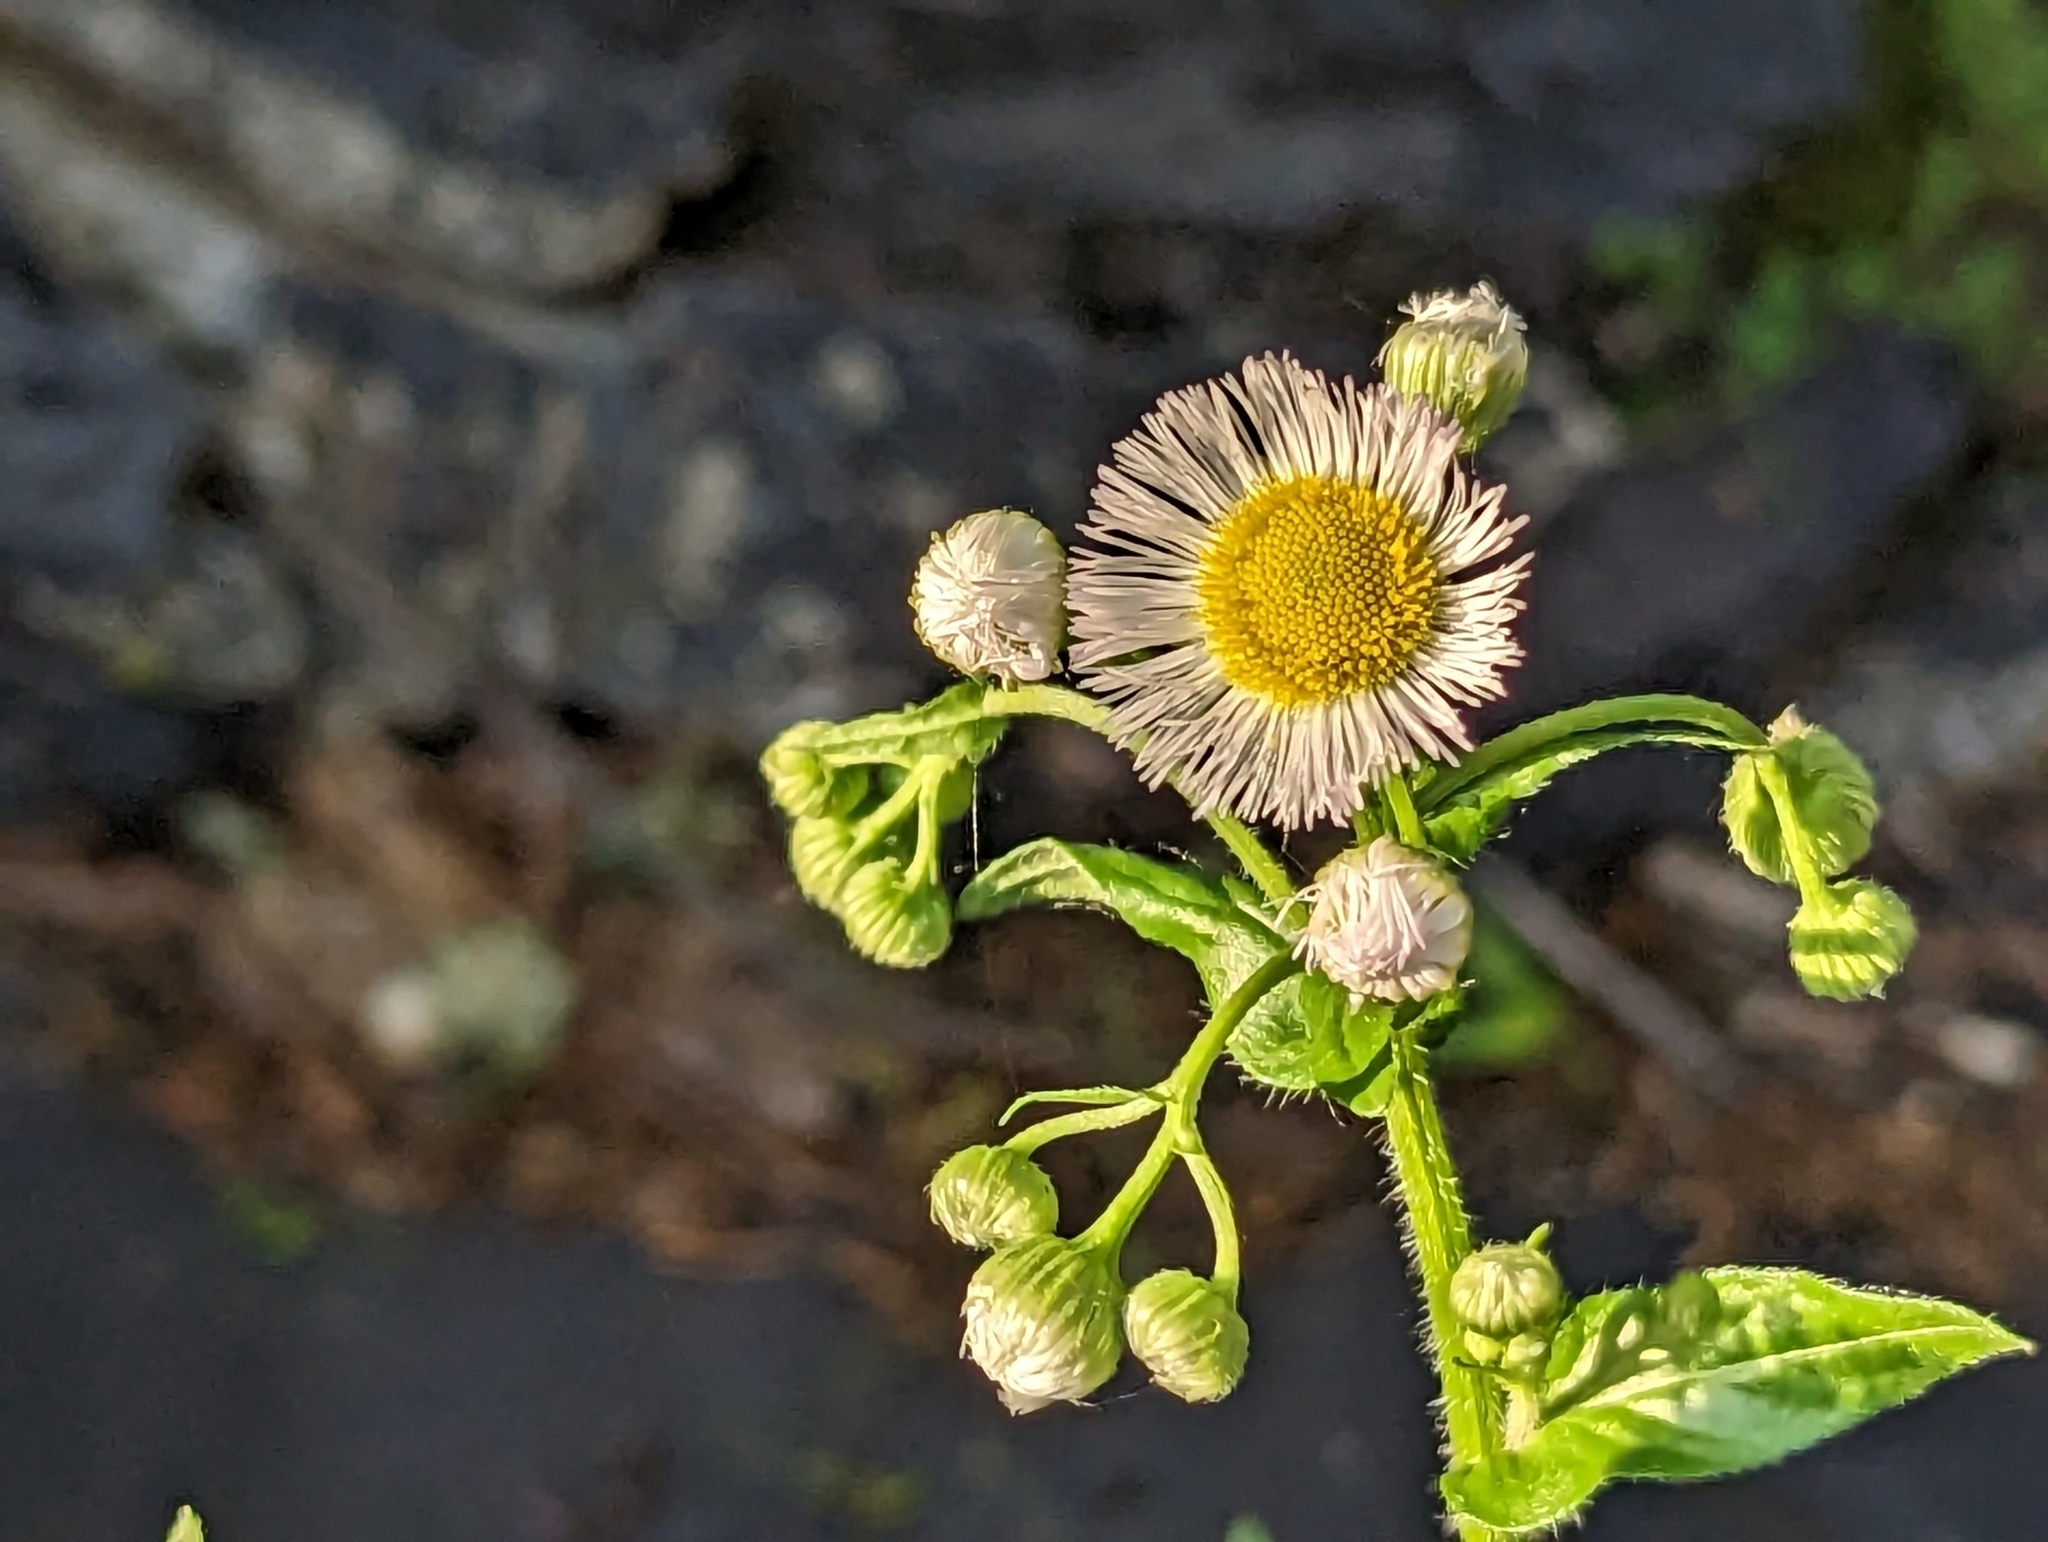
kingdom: Plantae
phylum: Tracheophyta
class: Magnoliopsida
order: Asterales
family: Asteraceae
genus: Erigeron
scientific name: Erigeron philadelphicus
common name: Robin's-plantain
